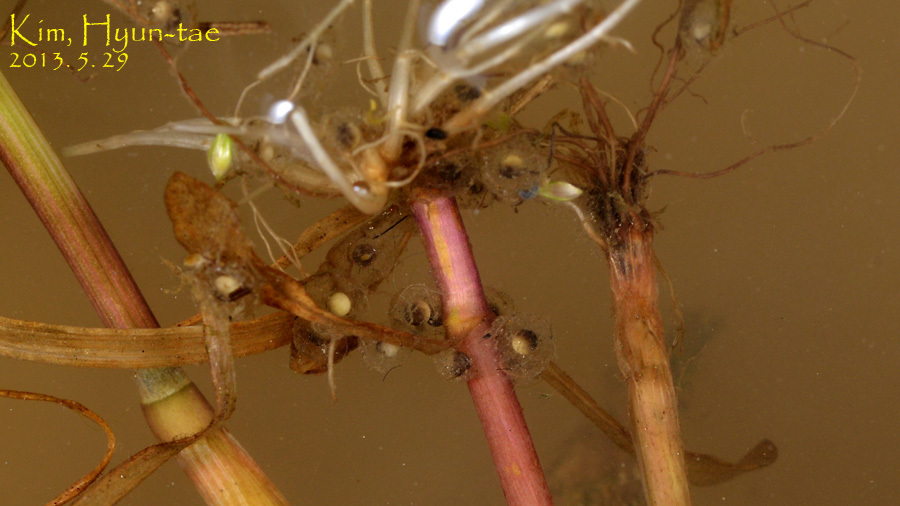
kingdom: Animalia
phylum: Chordata
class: Amphibia
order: Anura
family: Hylidae
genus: Dryophytes
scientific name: Dryophytes immaculatus
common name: North china treefrog
